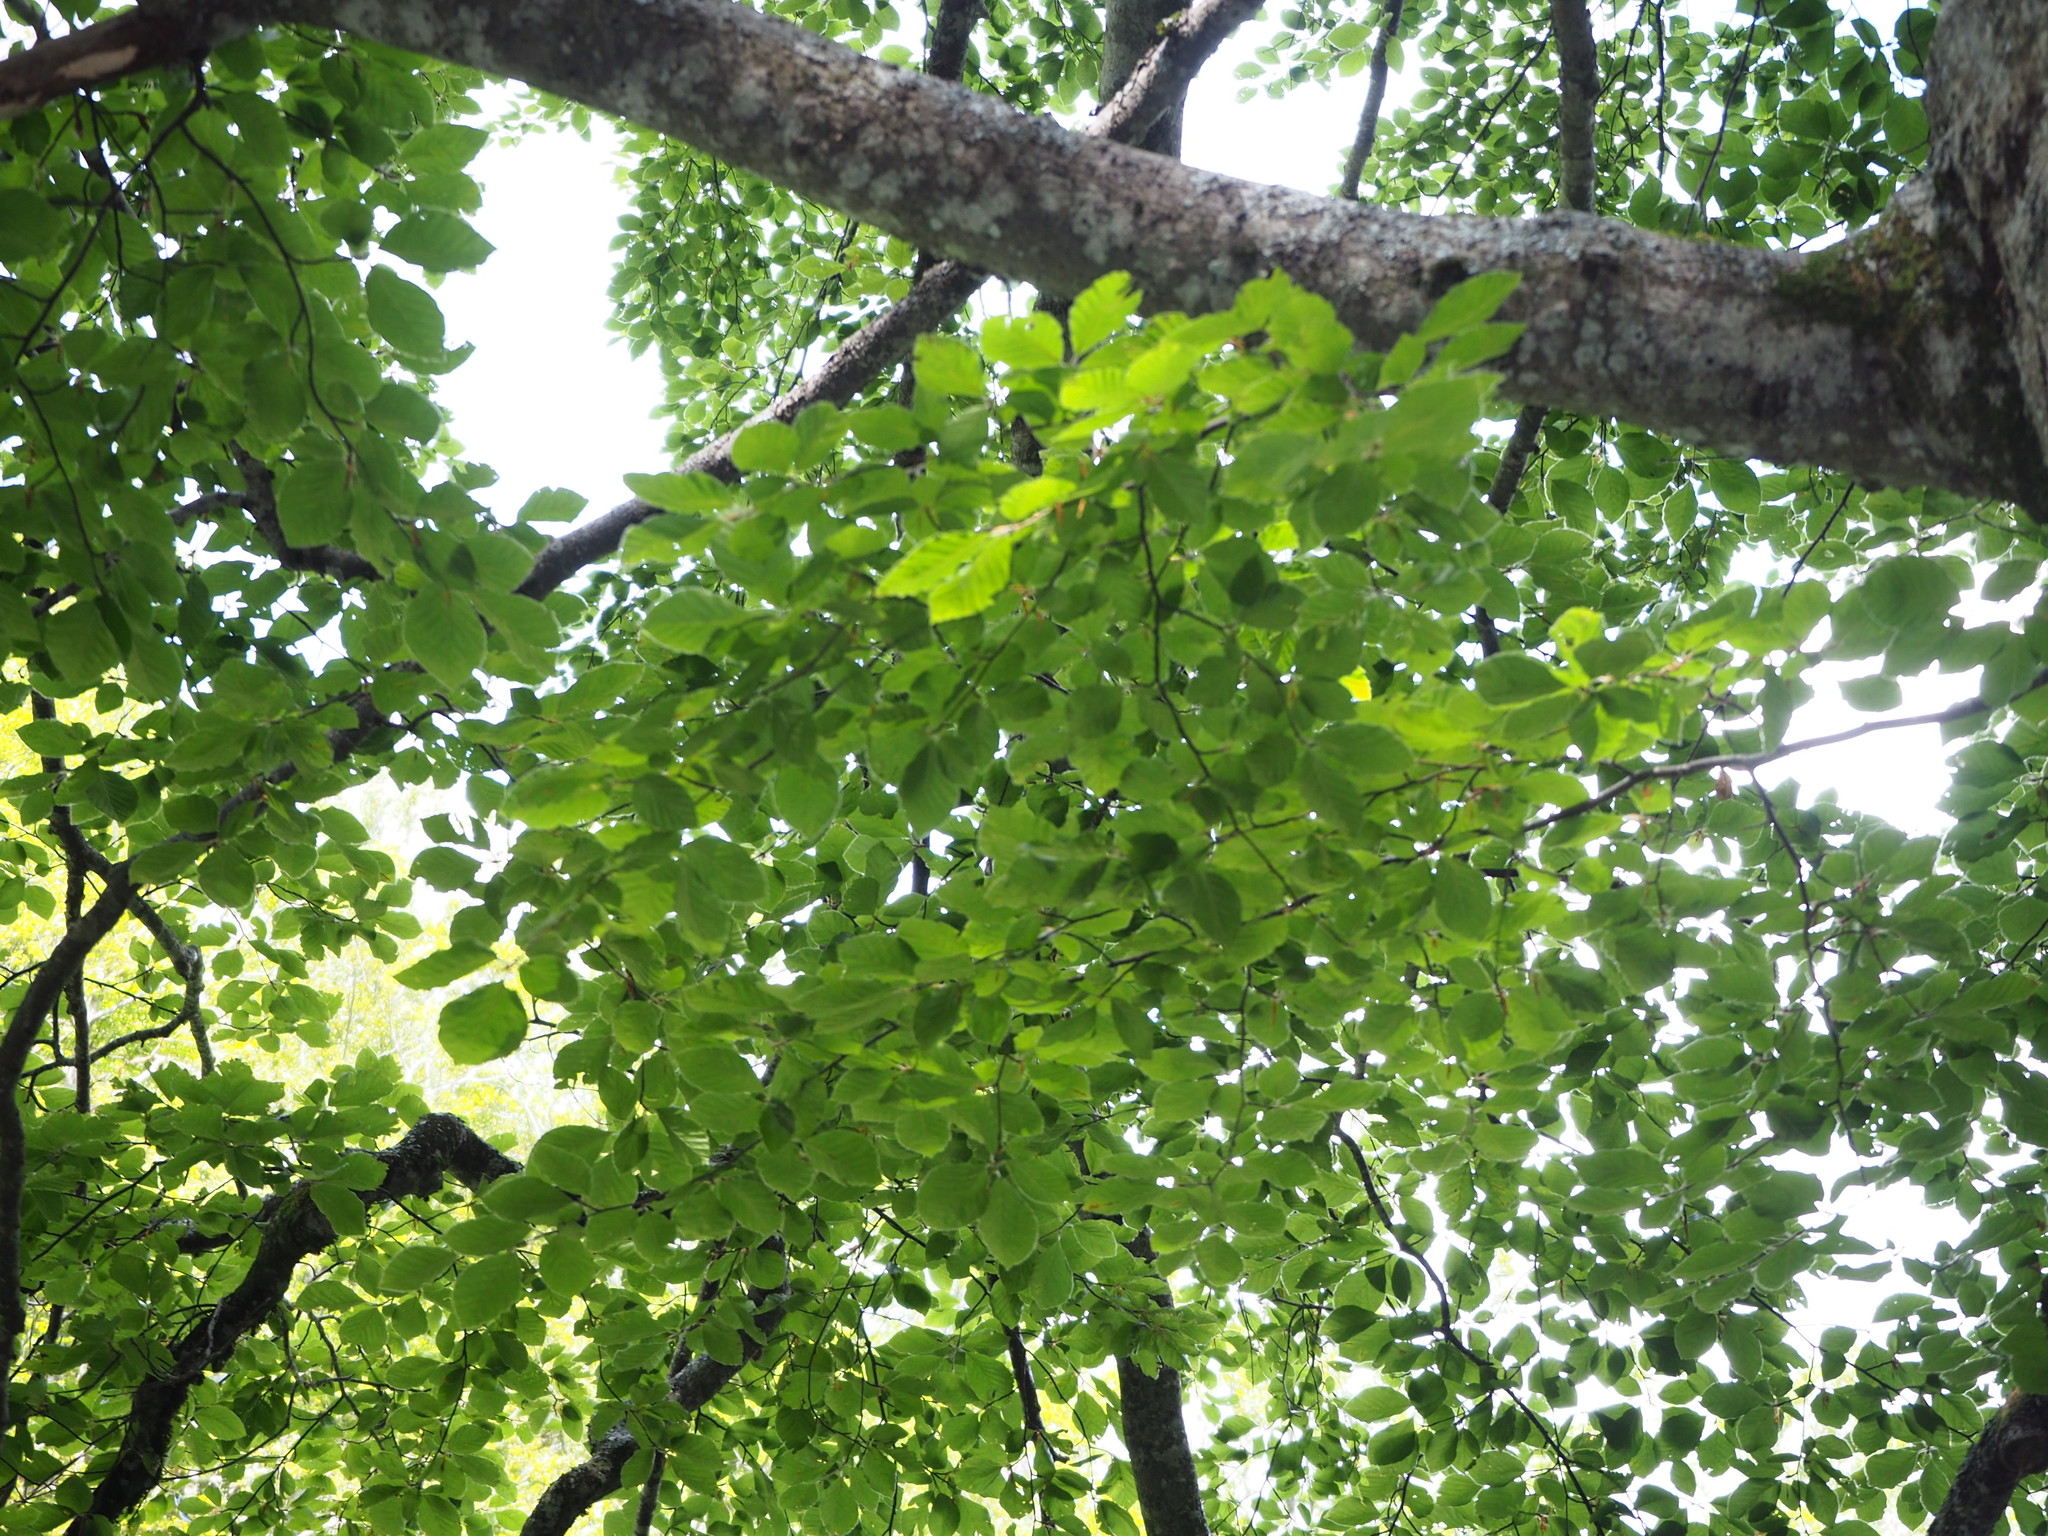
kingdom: Plantae
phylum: Tracheophyta
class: Magnoliopsida
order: Fagales
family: Fagaceae
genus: Fagus
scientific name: Fagus sylvatica
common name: Beech
